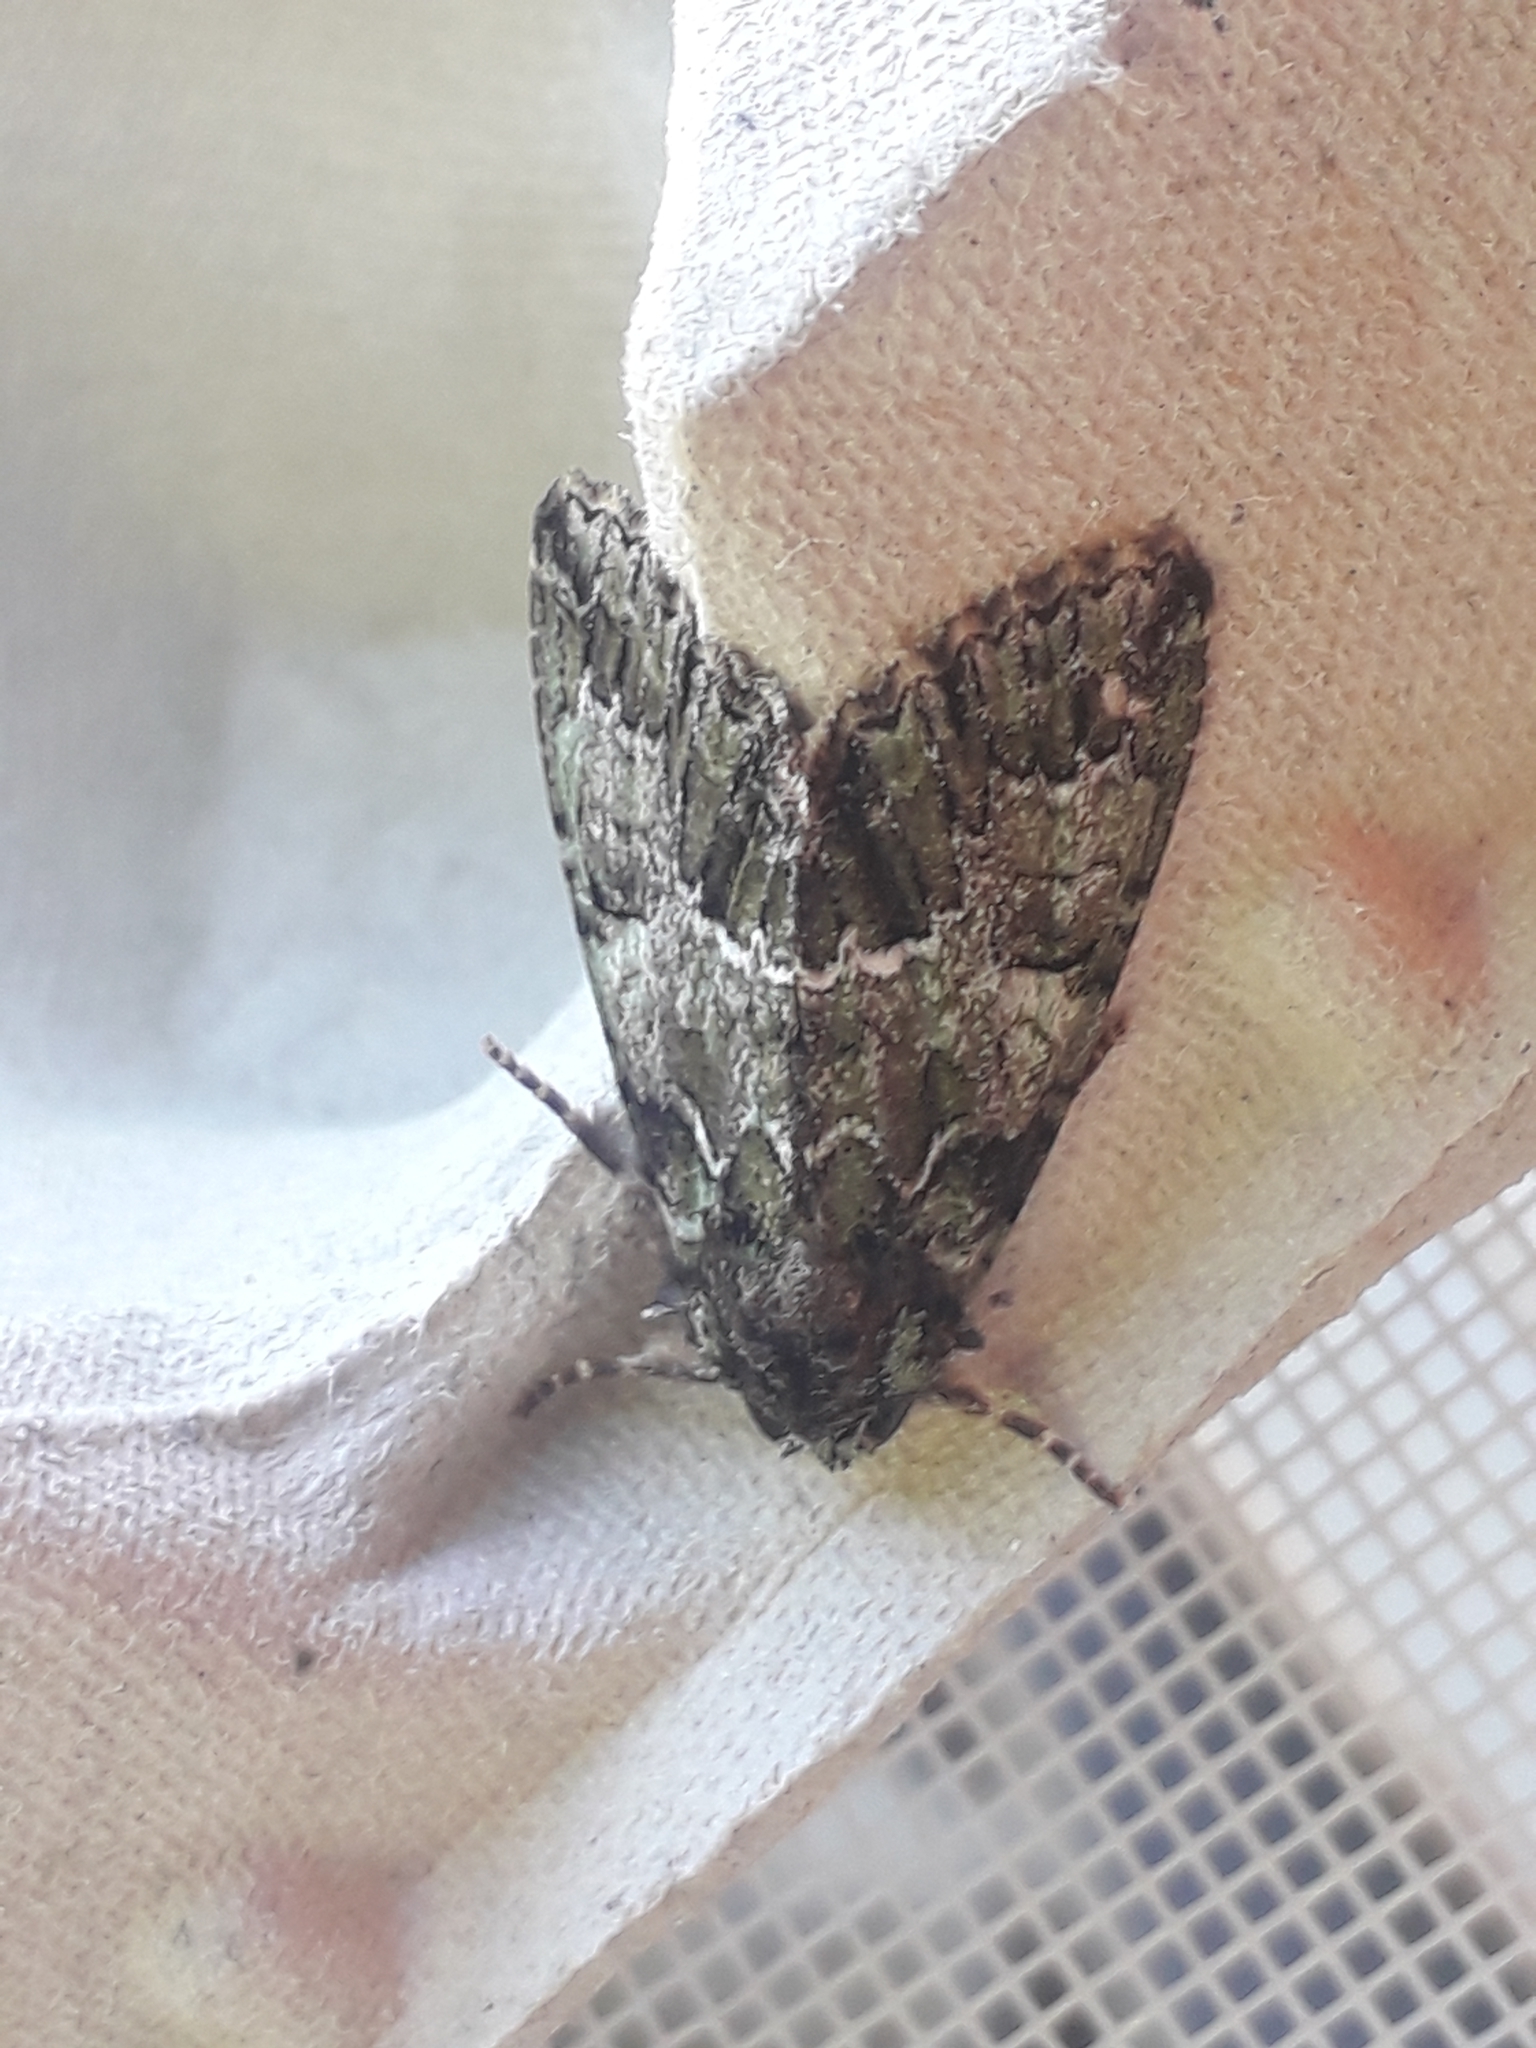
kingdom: Animalia
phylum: Arthropoda
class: Insecta
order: Lepidoptera
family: Noctuidae
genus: Polyphaenis
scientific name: Polyphaenis sericata
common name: Guernsey underwing
